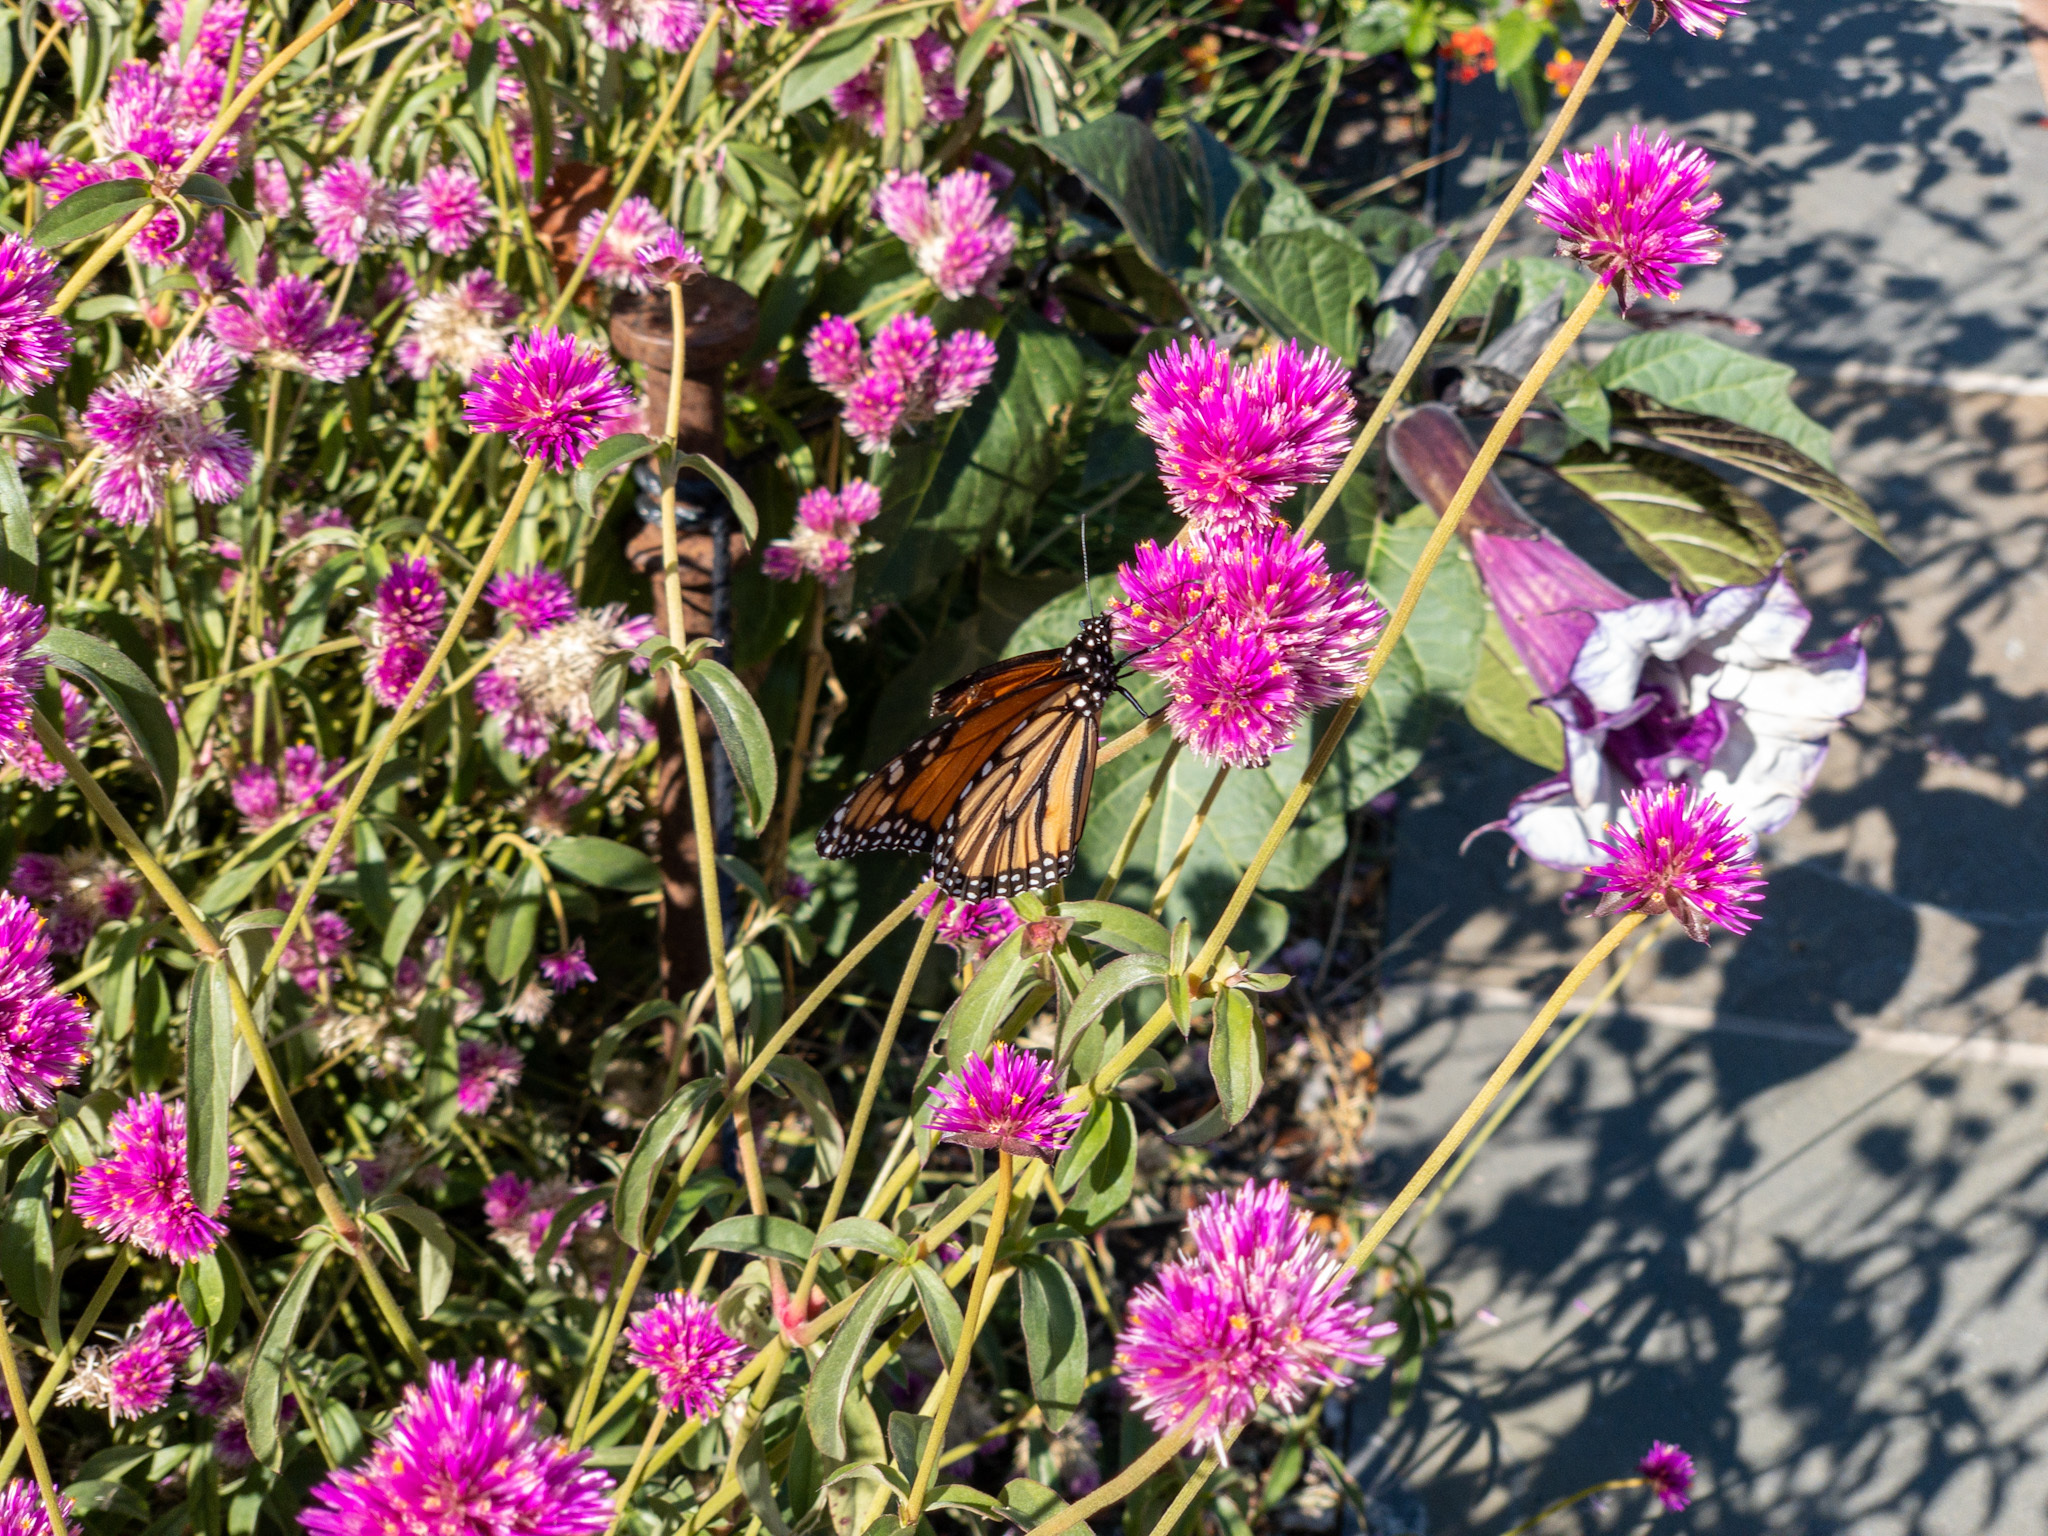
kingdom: Animalia
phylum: Arthropoda
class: Insecta
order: Lepidoptera
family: Nymphalidae
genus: Danaus
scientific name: Danaus plexippus
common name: Monarch
